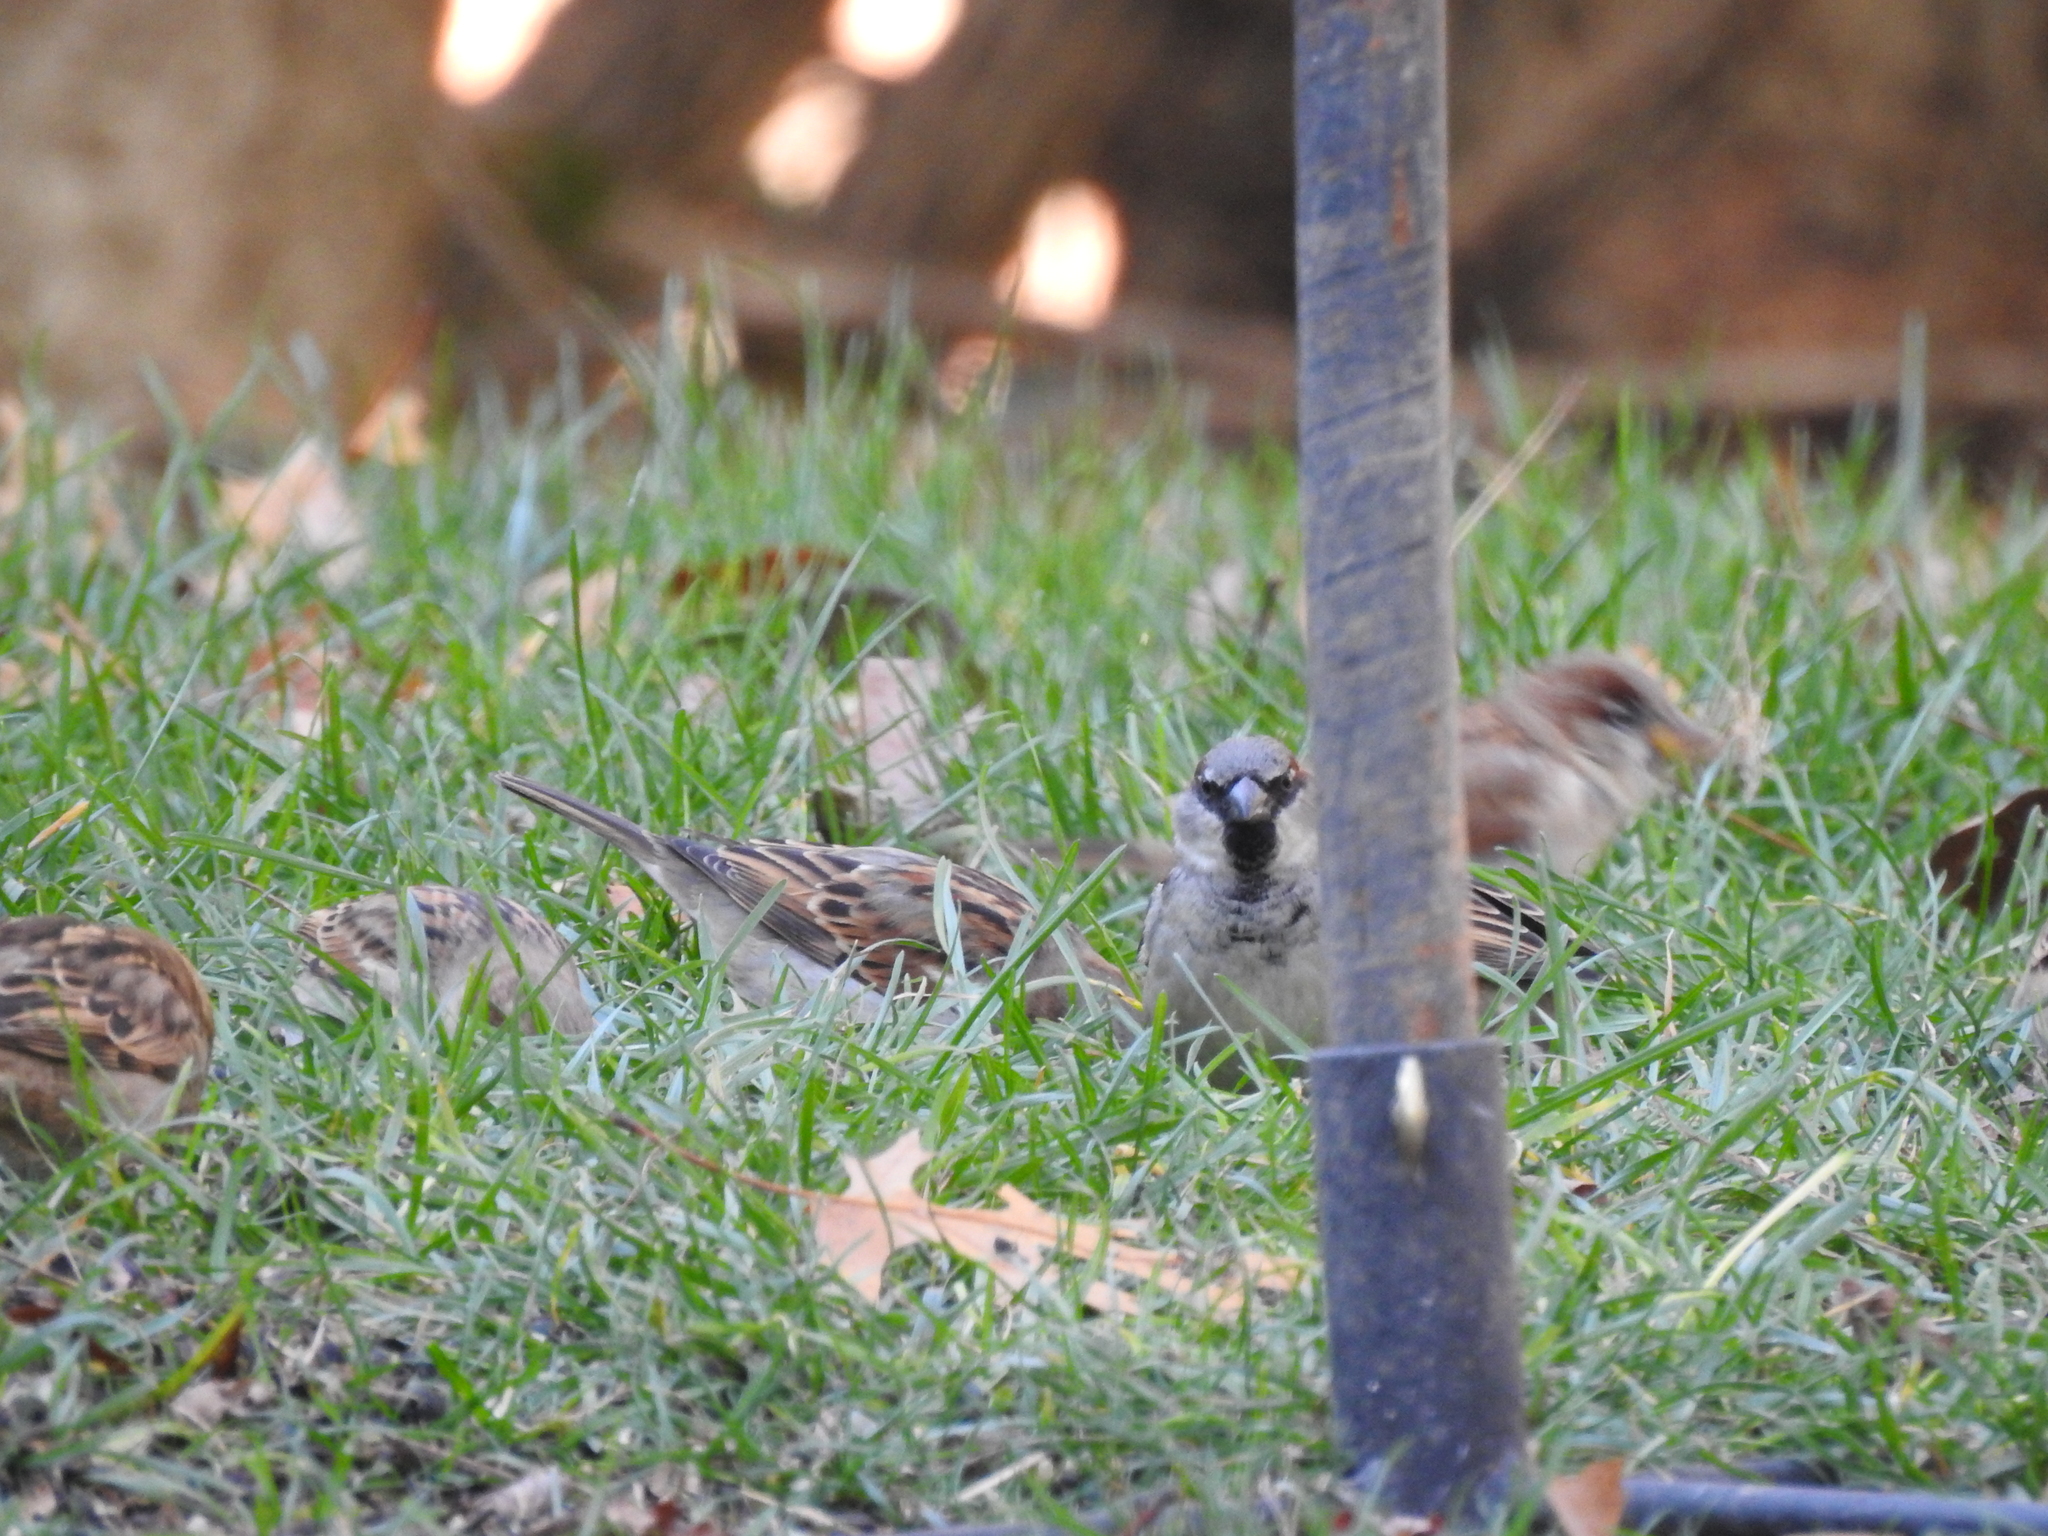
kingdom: Animalia
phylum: Chordata
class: Aves
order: Passeriformes
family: Passeridae
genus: Passer
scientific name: Passer domesticus
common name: House sparrow
